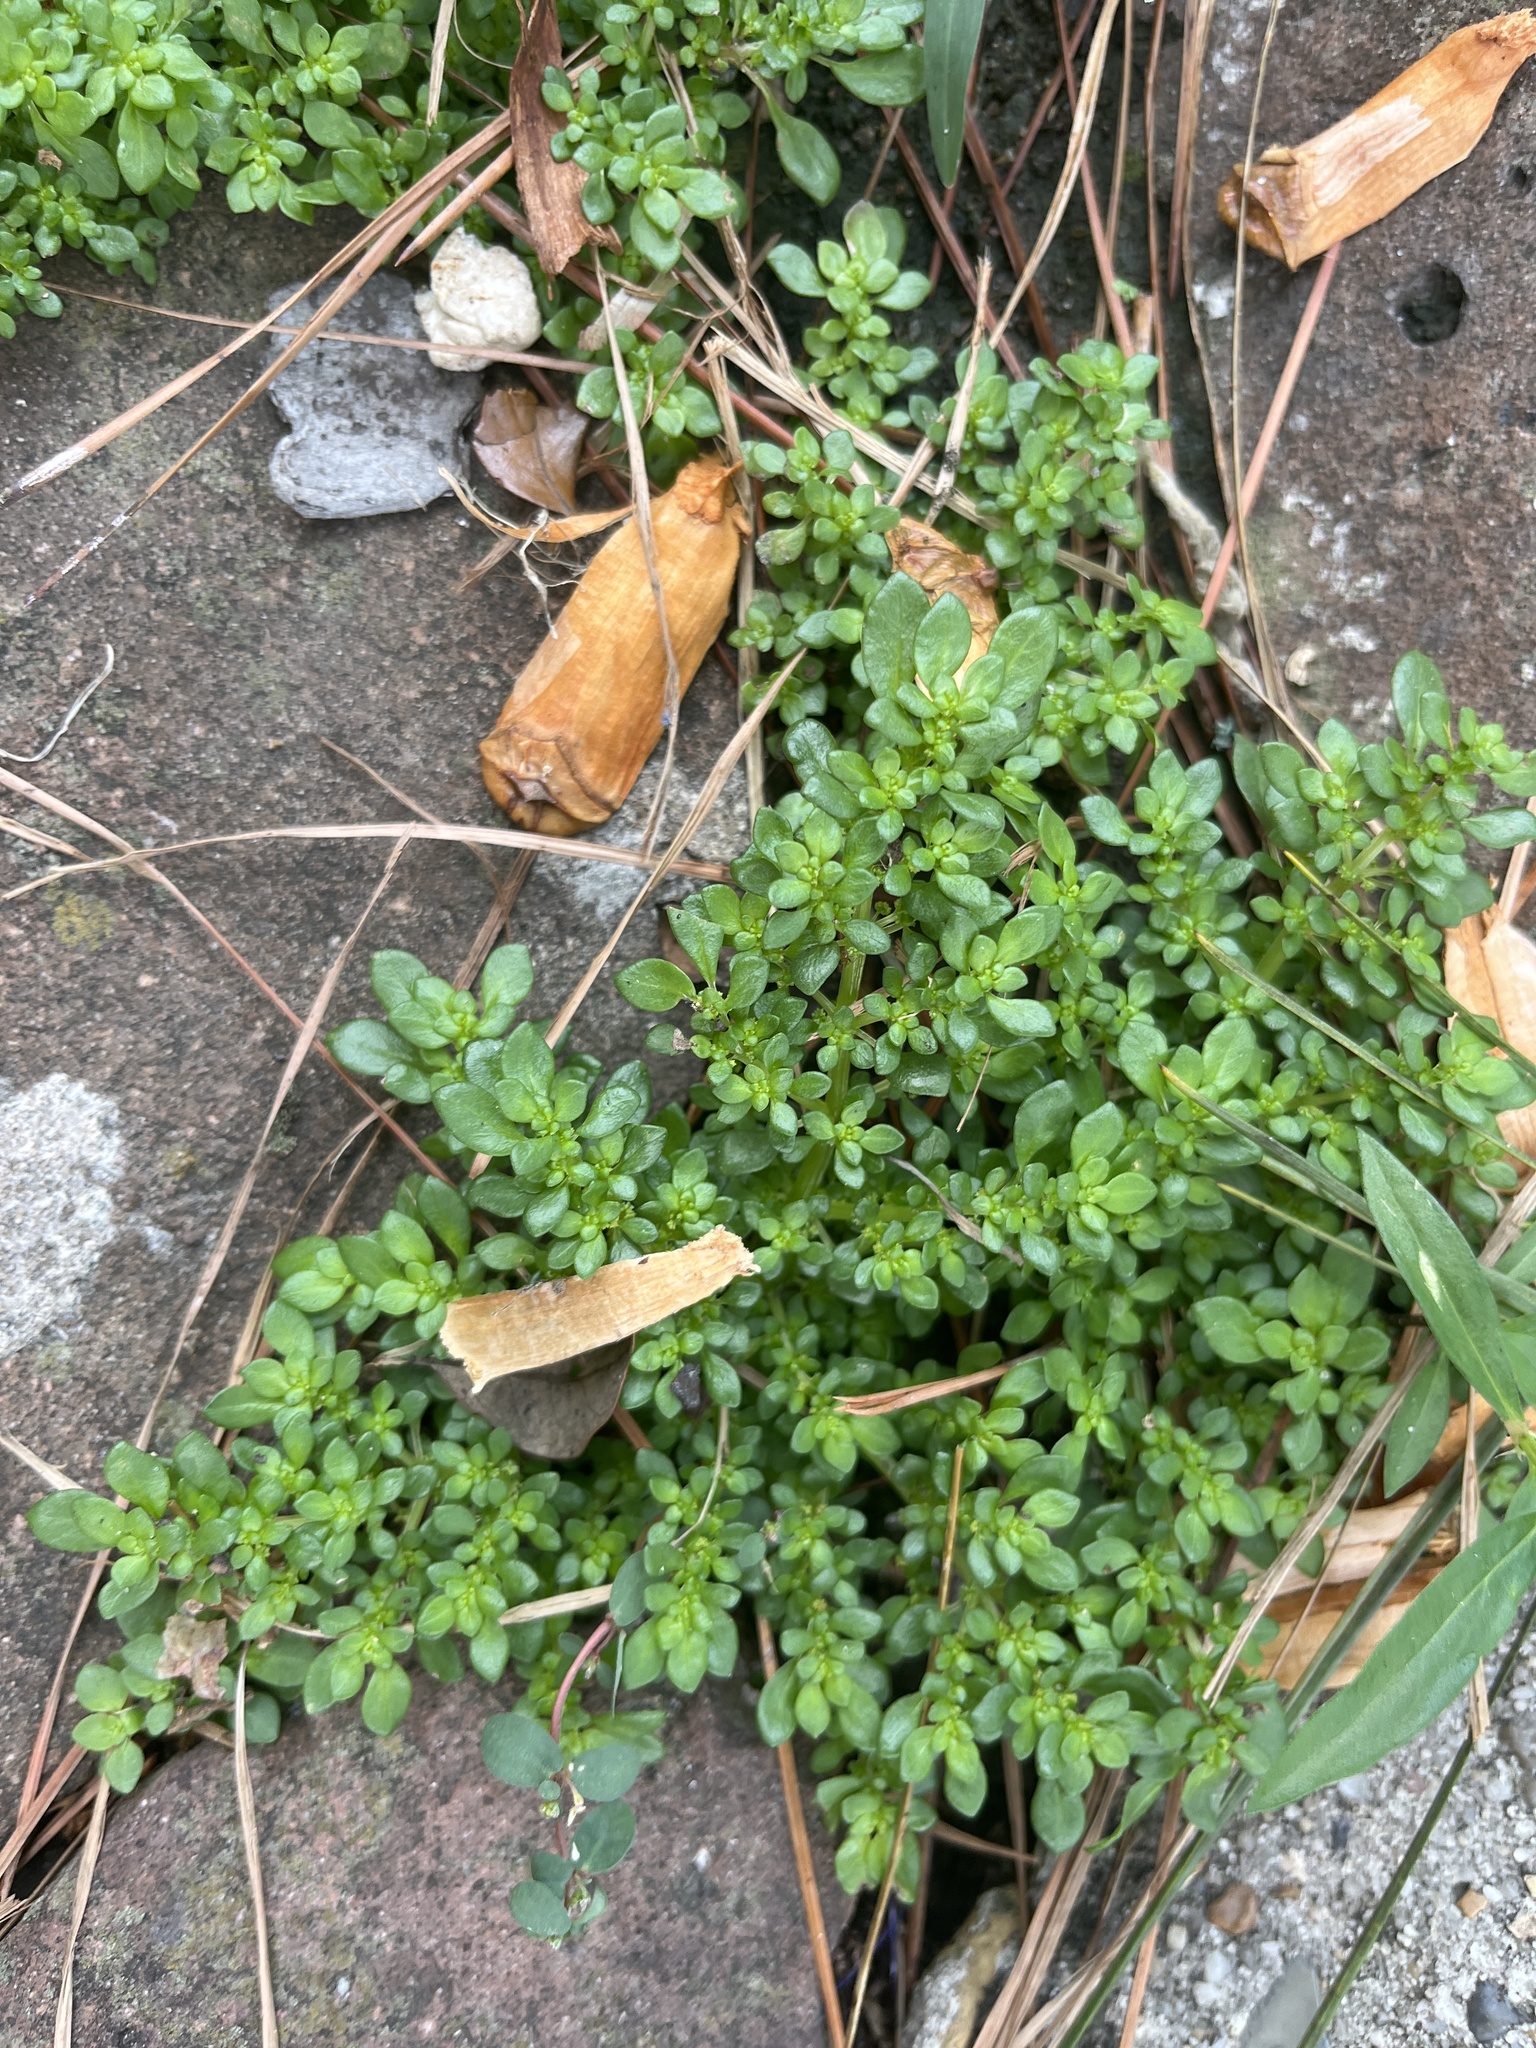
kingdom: Plantae
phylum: Tracheophyta
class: Magnoliopsida
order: Rosales
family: Urticaceae
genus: Pilea
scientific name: Pilea microphylla
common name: Artillery-plant
